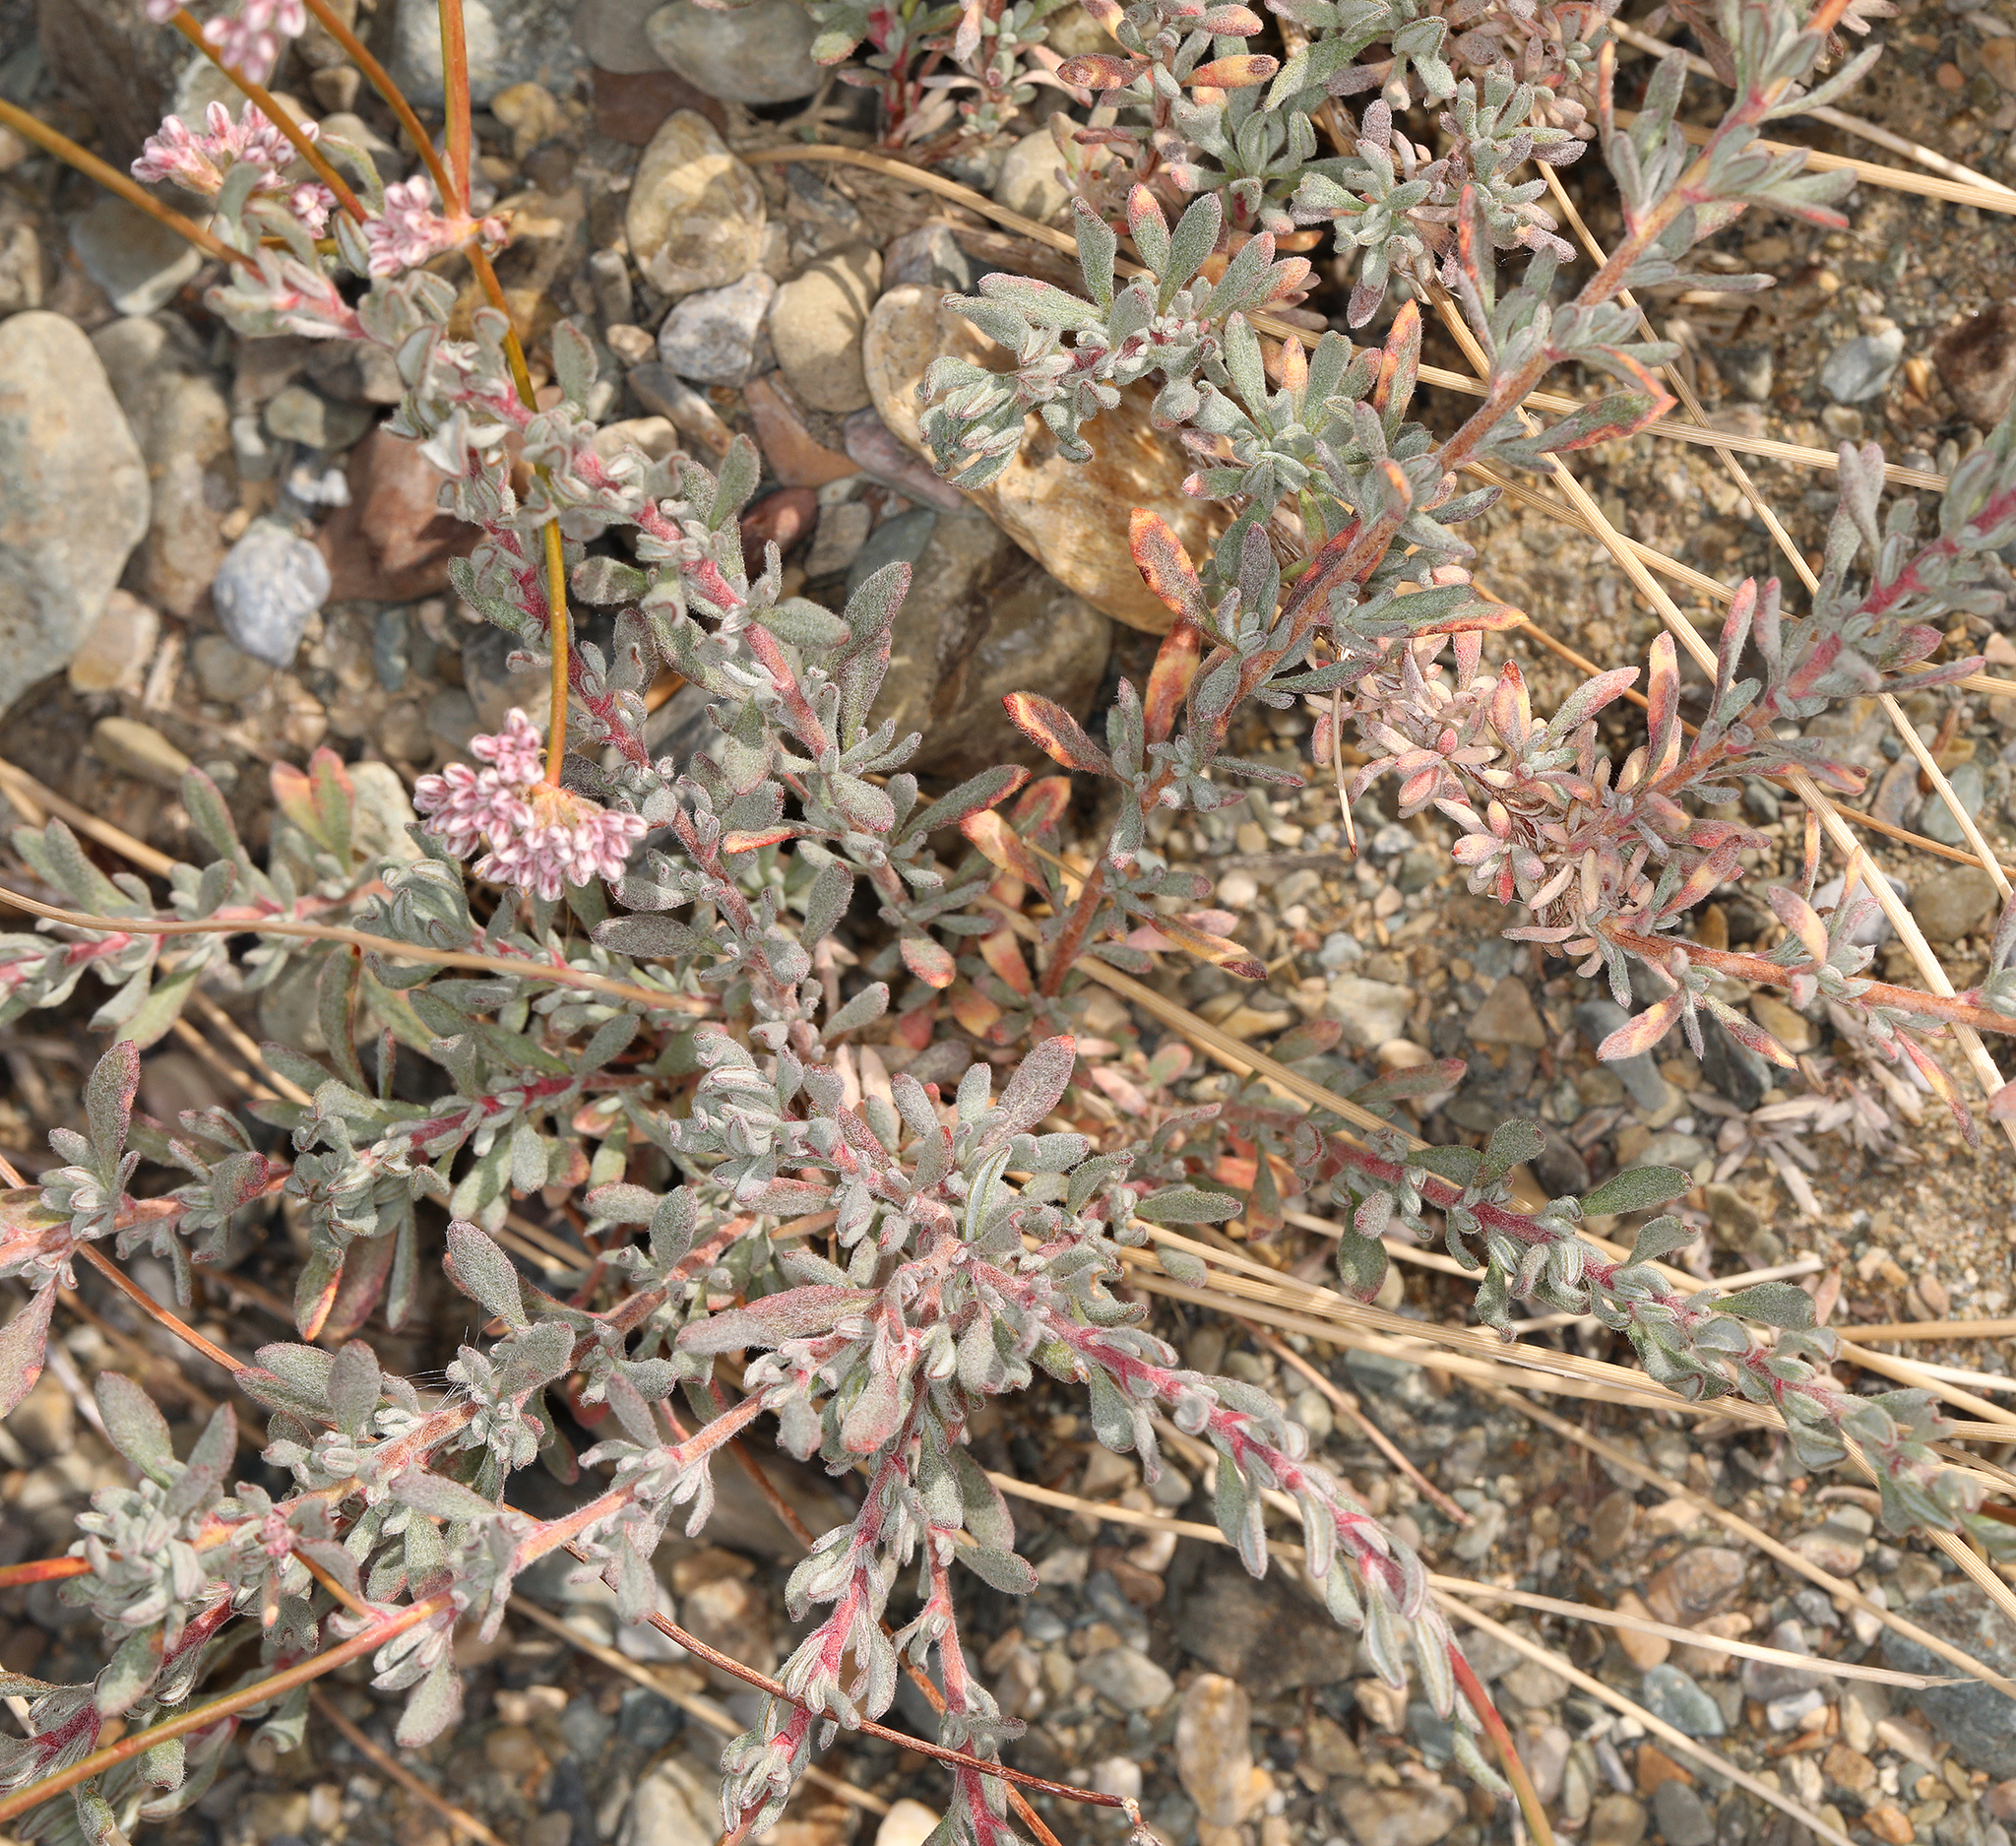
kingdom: Plantae
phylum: Tracheophyta
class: Magnoliopsida
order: Caryophyllales
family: Polygonaceae
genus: Eriogonum
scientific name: Eriogonum fasciculatum
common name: California wild buckwheat
